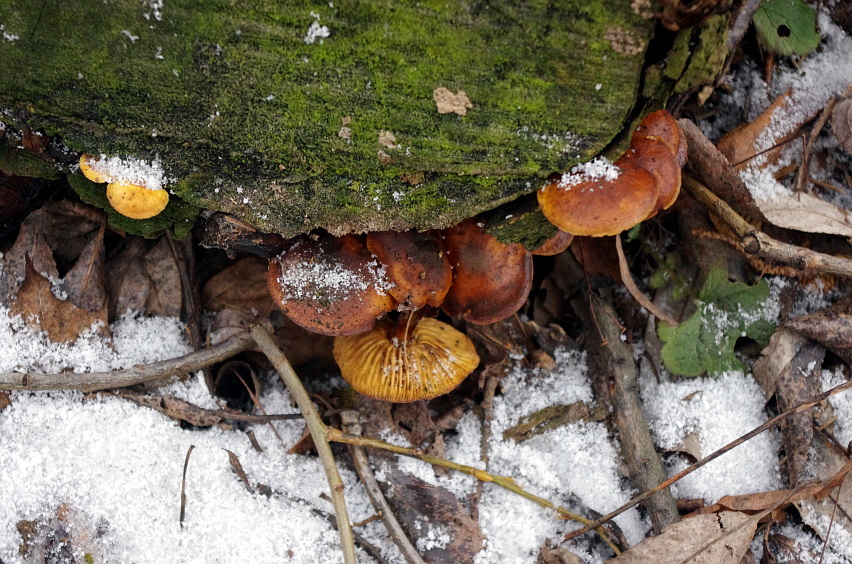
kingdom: Fungi
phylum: Basidiomycota
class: Agaricomycetes
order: Agaricales
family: Physalacriaceae
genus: Flammulina
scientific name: Flammulina
